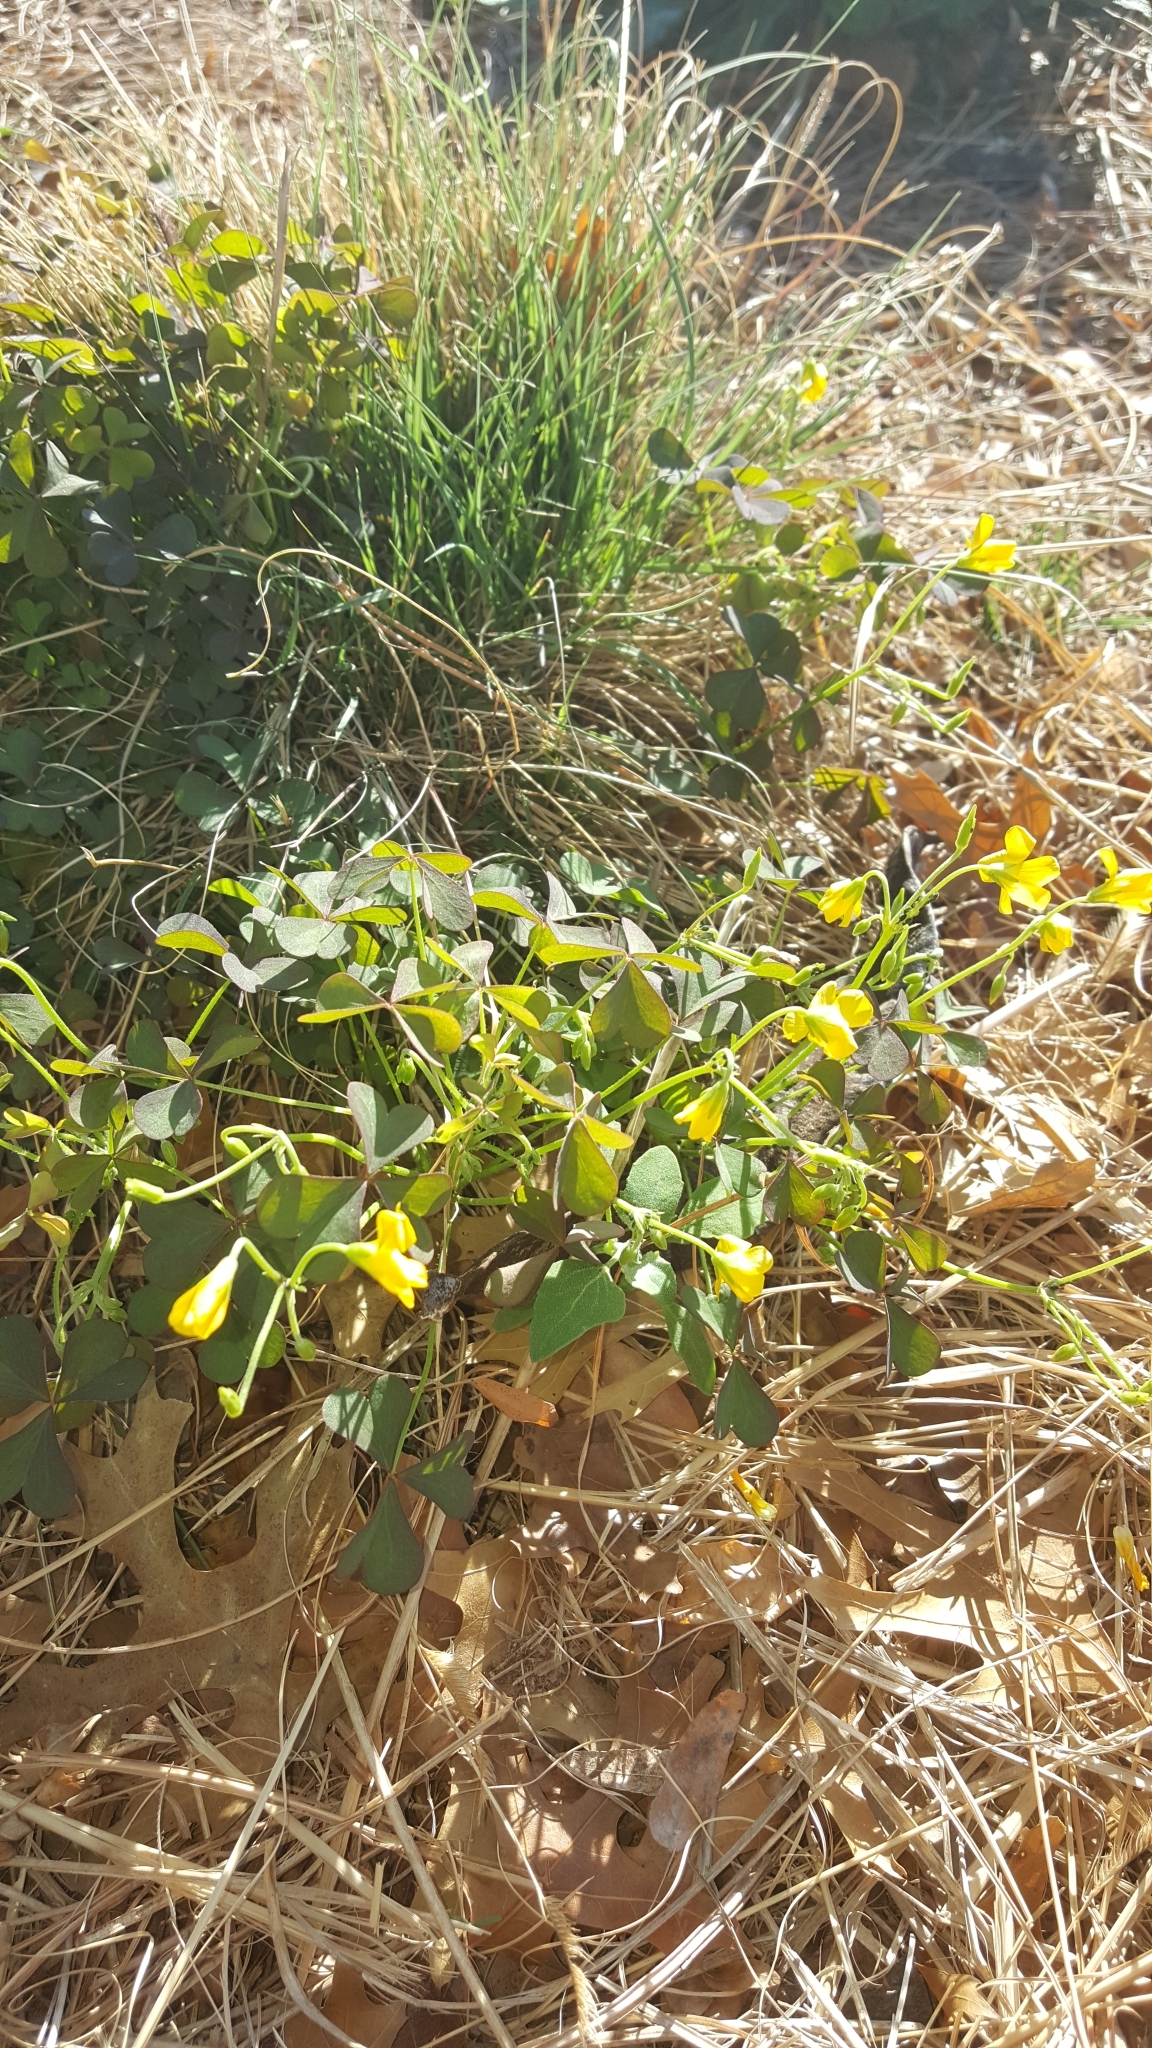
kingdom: Plantae
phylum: Tracheophyta
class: Magnoliopsida
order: Oxalidales
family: Oxalidaceae
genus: Oxalis
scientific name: Oxalis corniculata
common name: Procumbent yellow-sorrel
